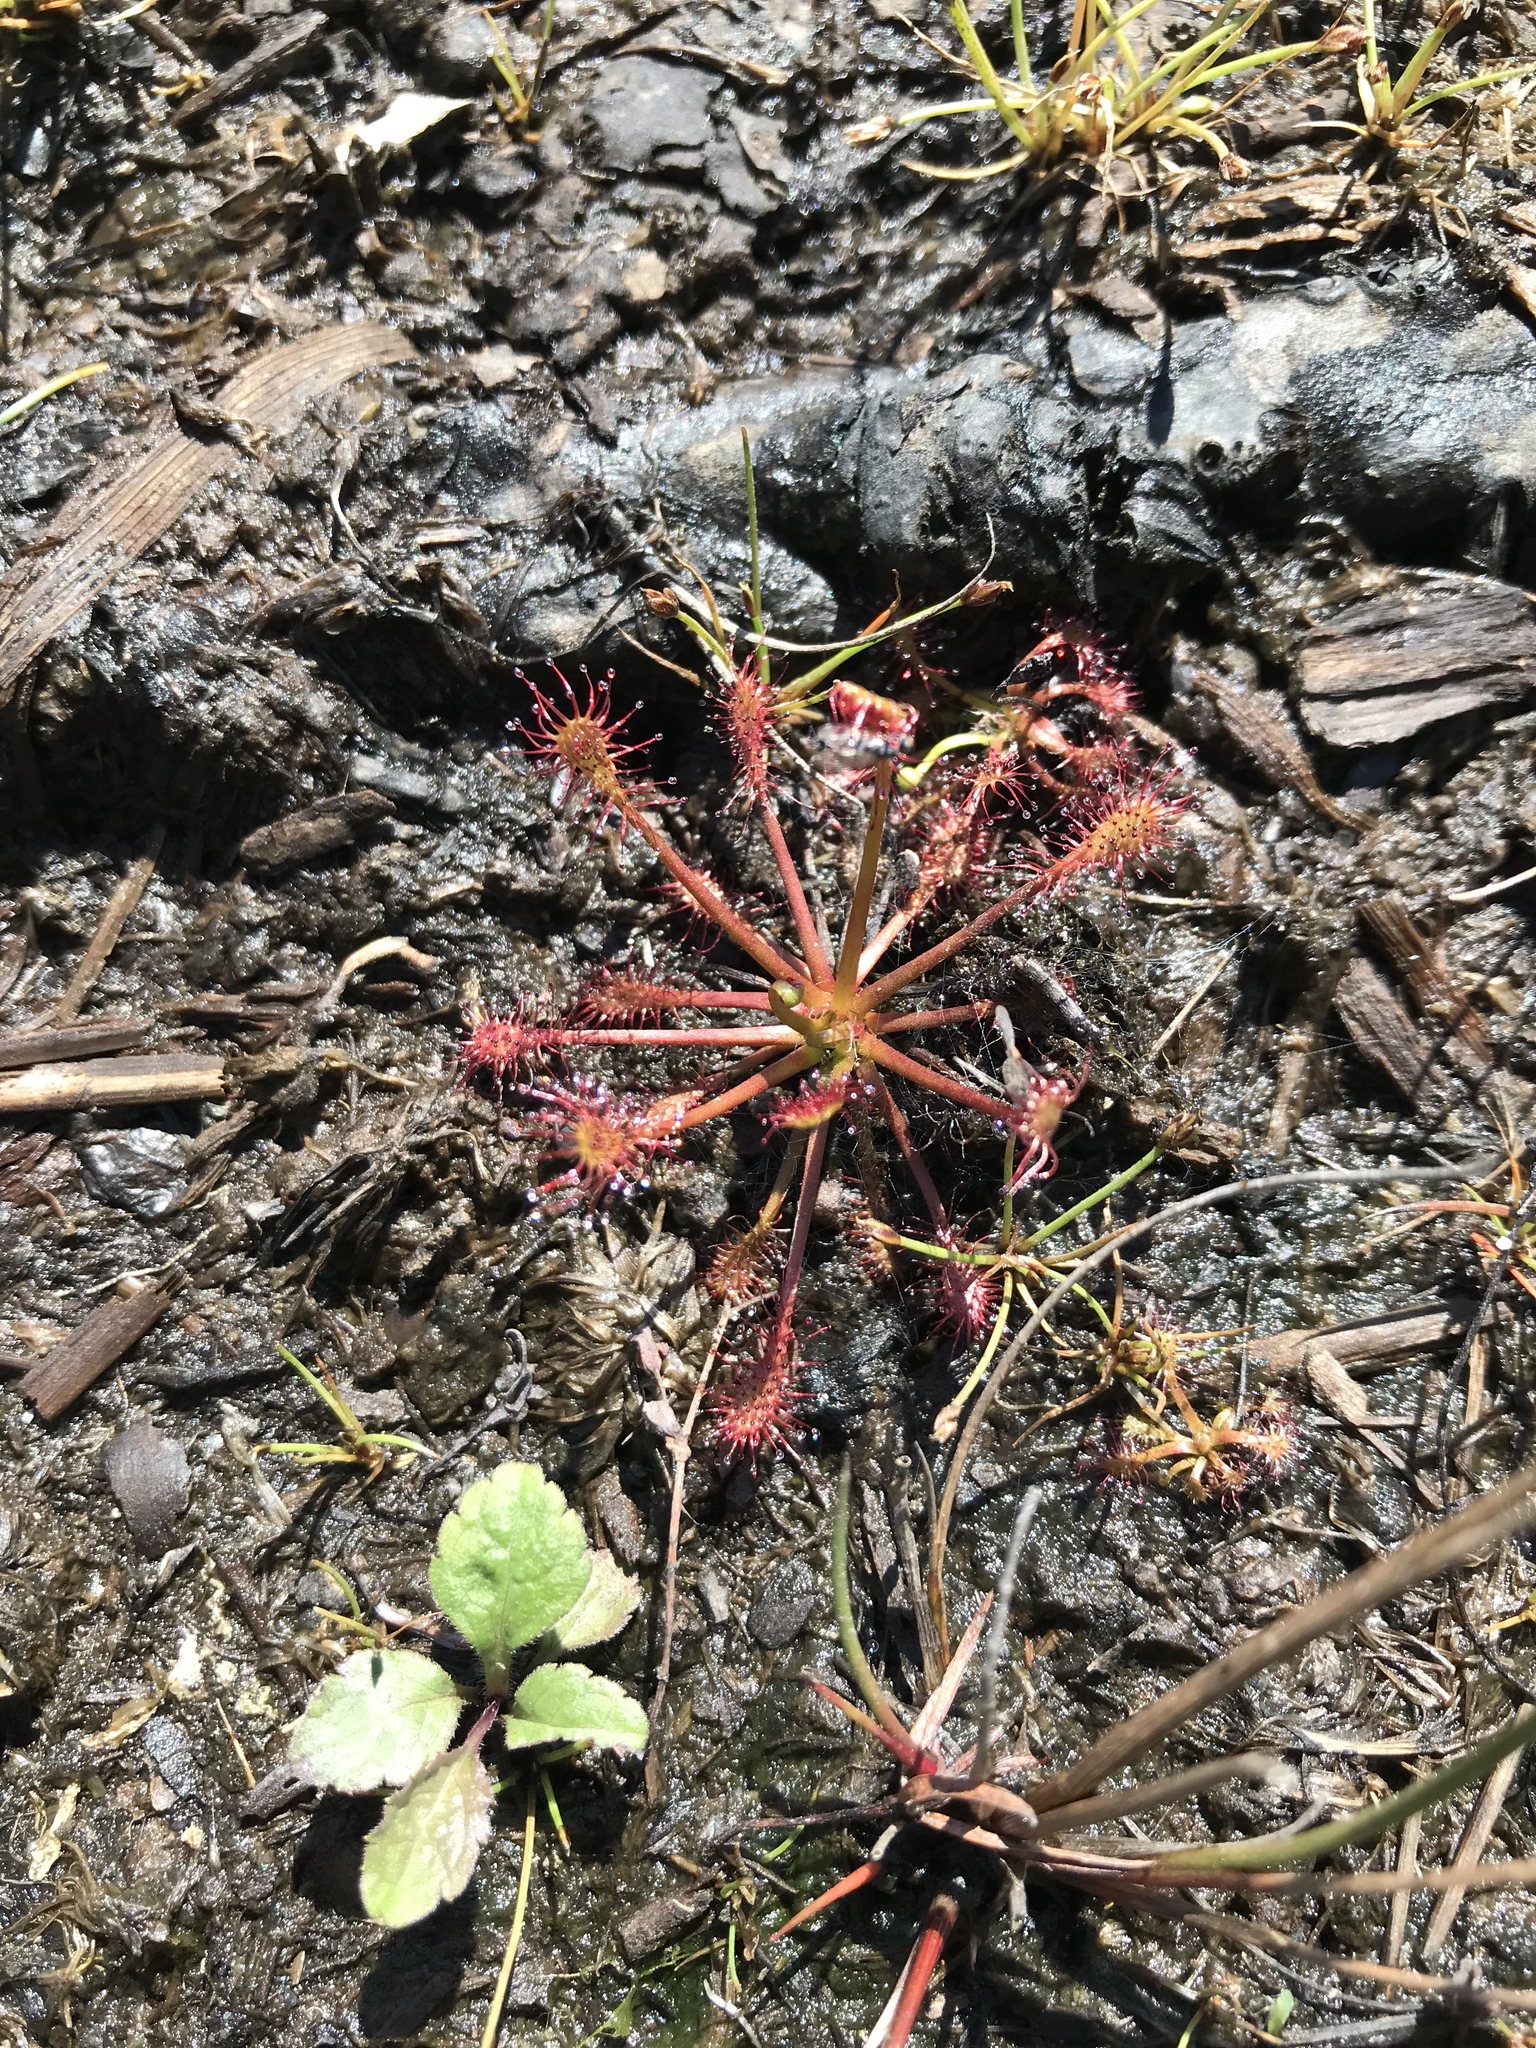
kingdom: Plantae
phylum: Tracheophyta
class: Magnoliopsida
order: Caryophyllales
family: Droseraceae
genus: Drosera
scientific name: Drosera intermedia
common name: Oblong-leaved sundew
